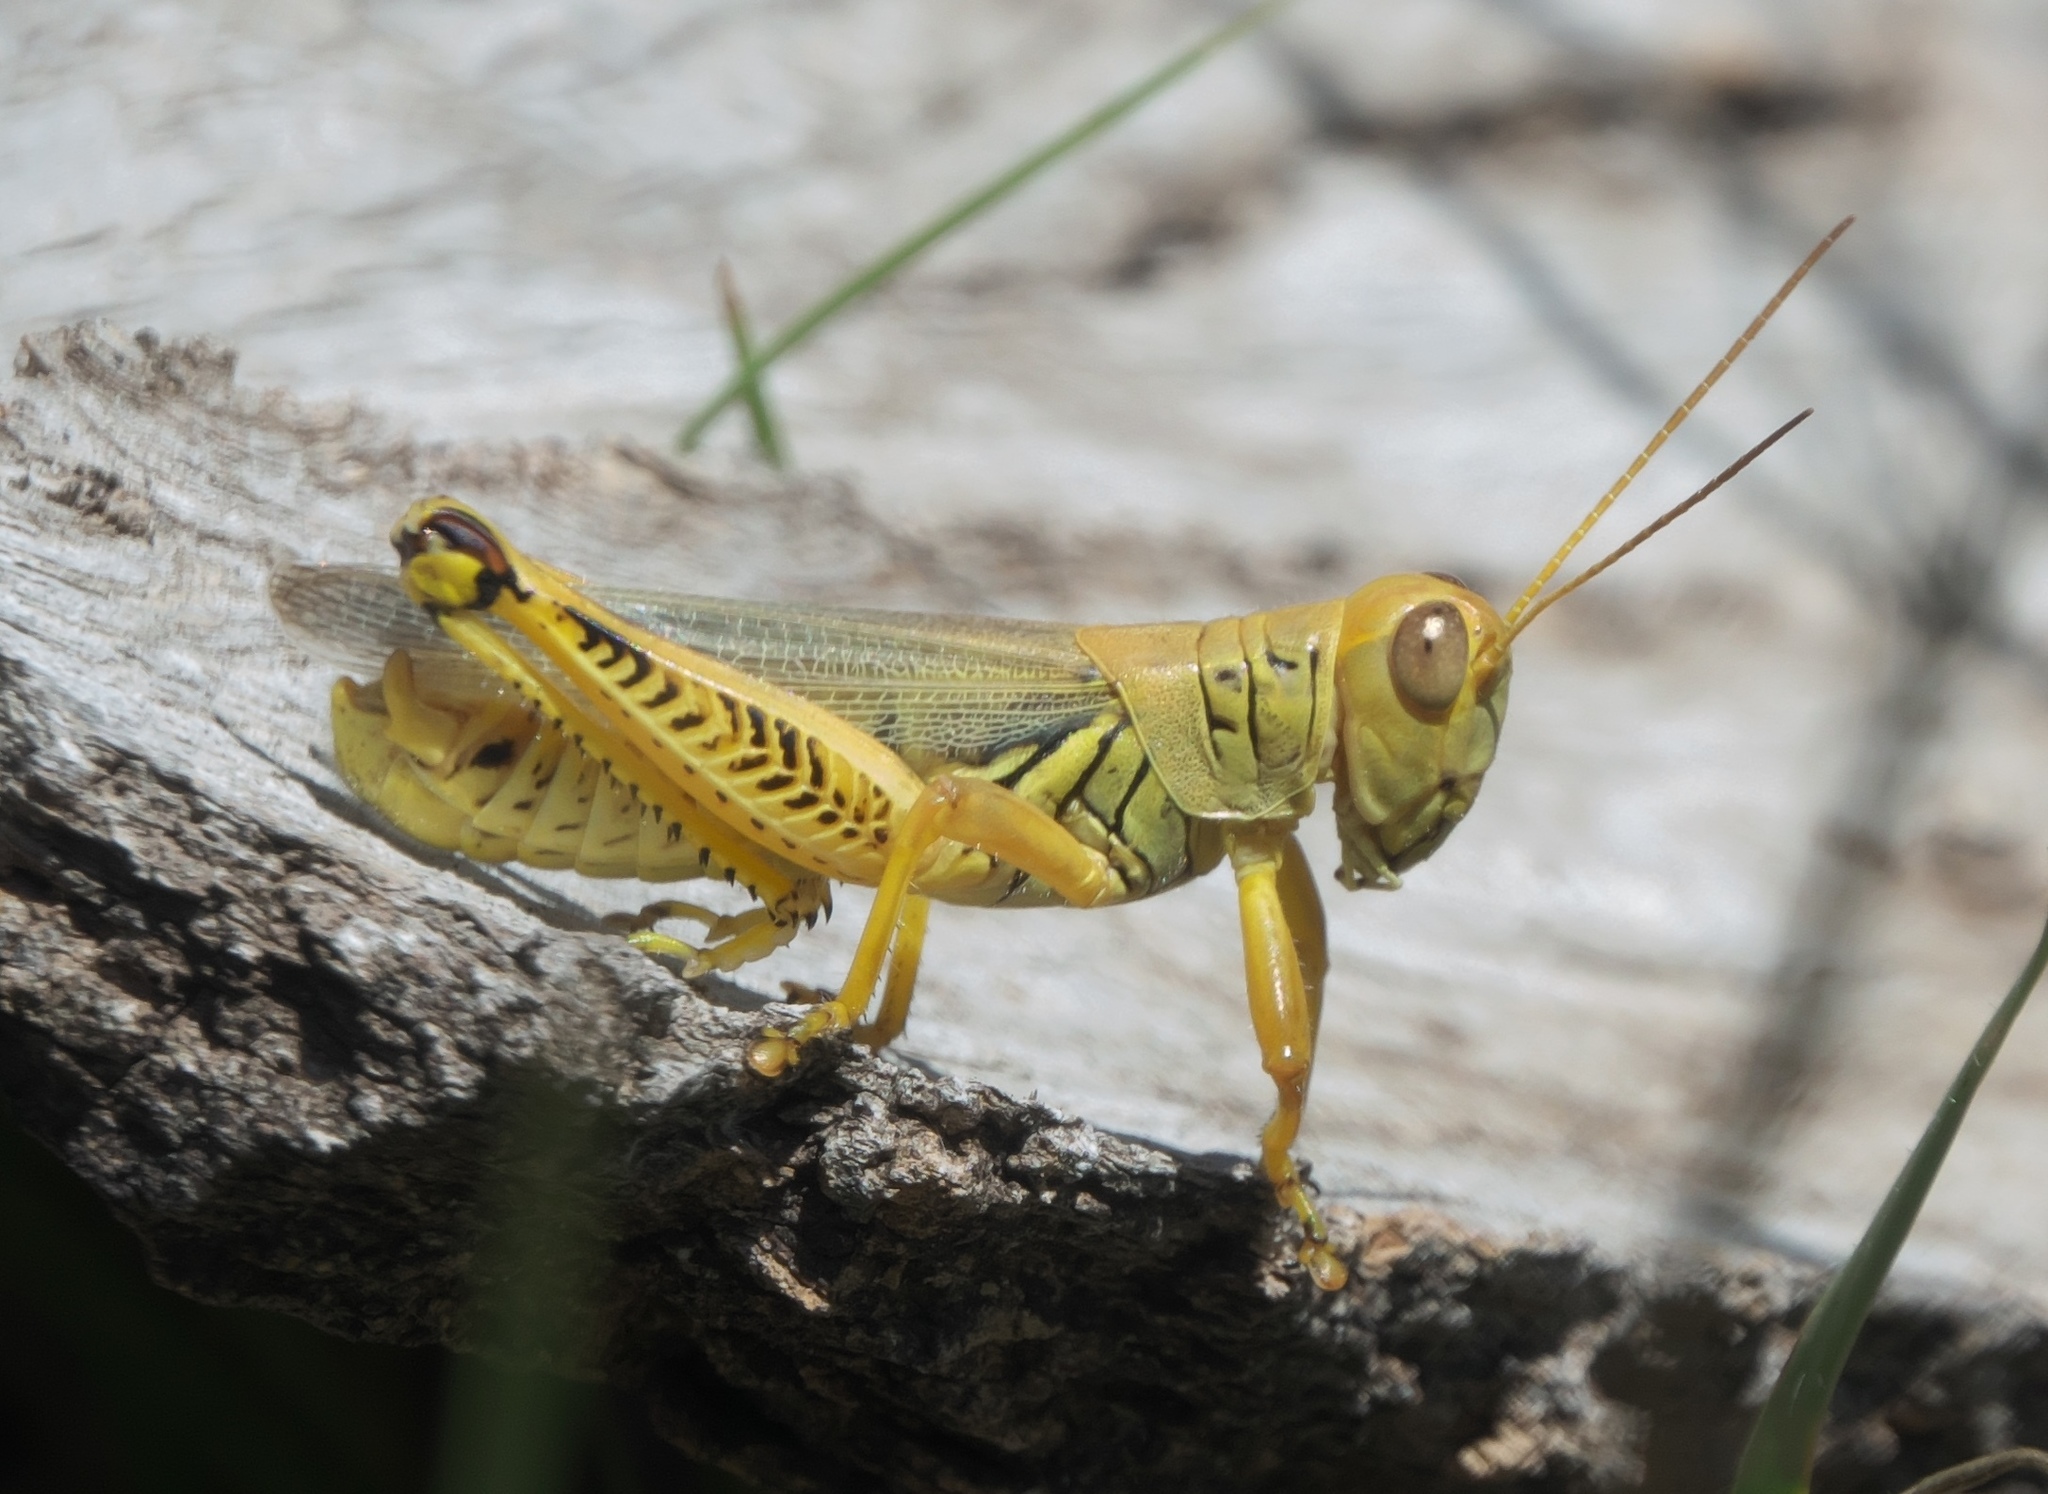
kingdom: Animalia
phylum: Arthropoda
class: Insecta
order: Orthoptera
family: Acrididae
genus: Melanoplus
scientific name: Melanoplus differentialis
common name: Differential grasshopper
